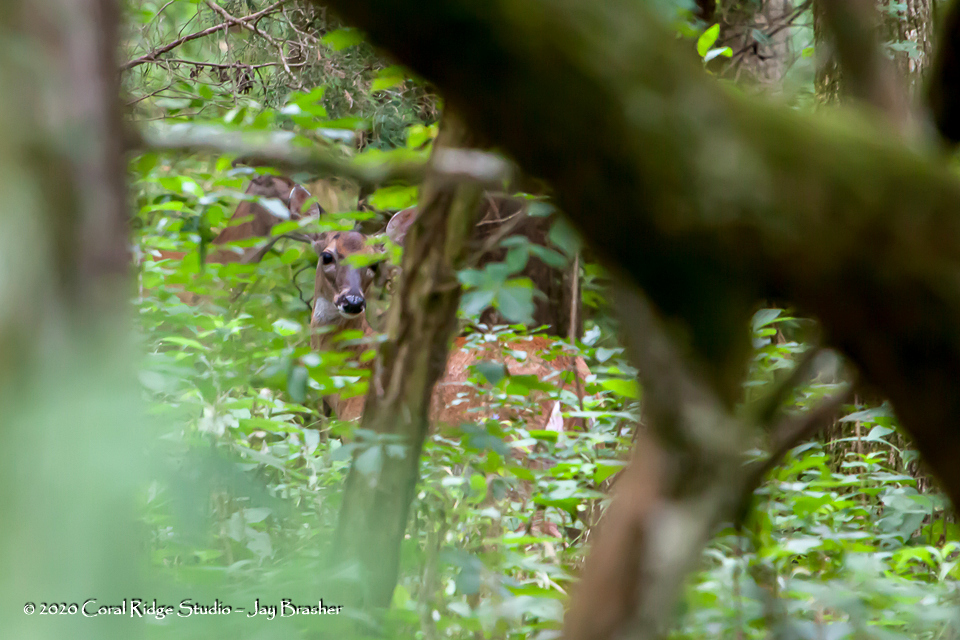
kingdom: Animalia
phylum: Chordata
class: Mammalia
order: Artiodactyla
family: Cervidae
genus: Odocoileus
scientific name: Odocoileus virginianus
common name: White-tailed deer
